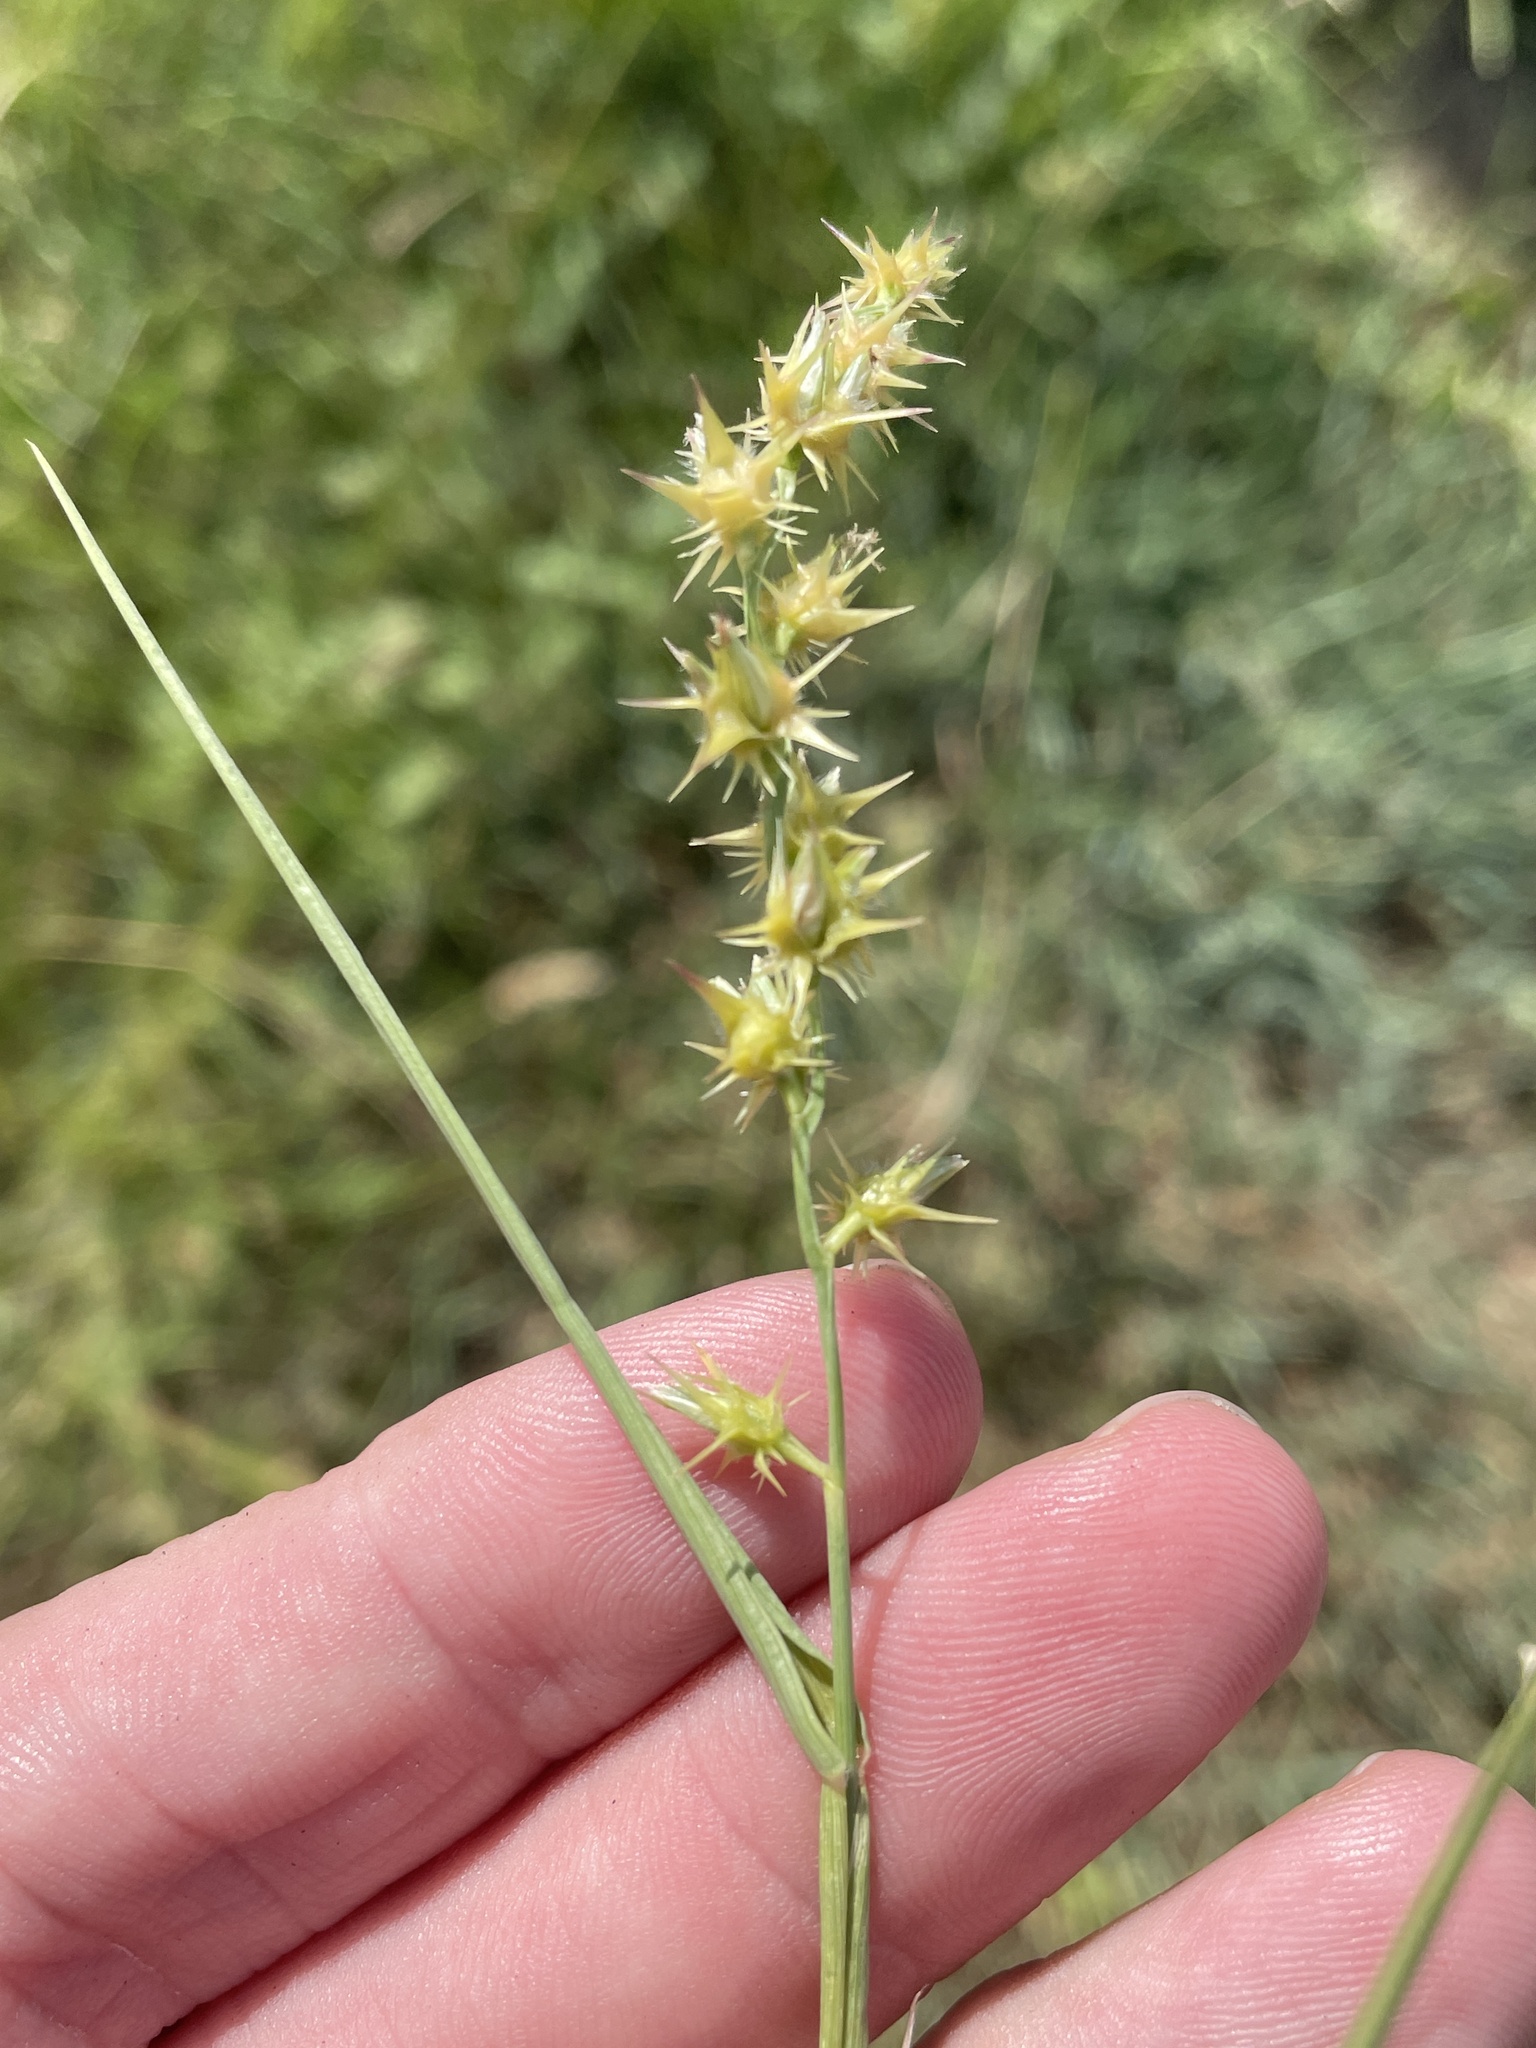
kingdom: Plantae
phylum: Tracheophyta
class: Liliopsida
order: Poales
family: Poaceae
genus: Cenchrus
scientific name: Cenchrus spinifex
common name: Coast sandbur
